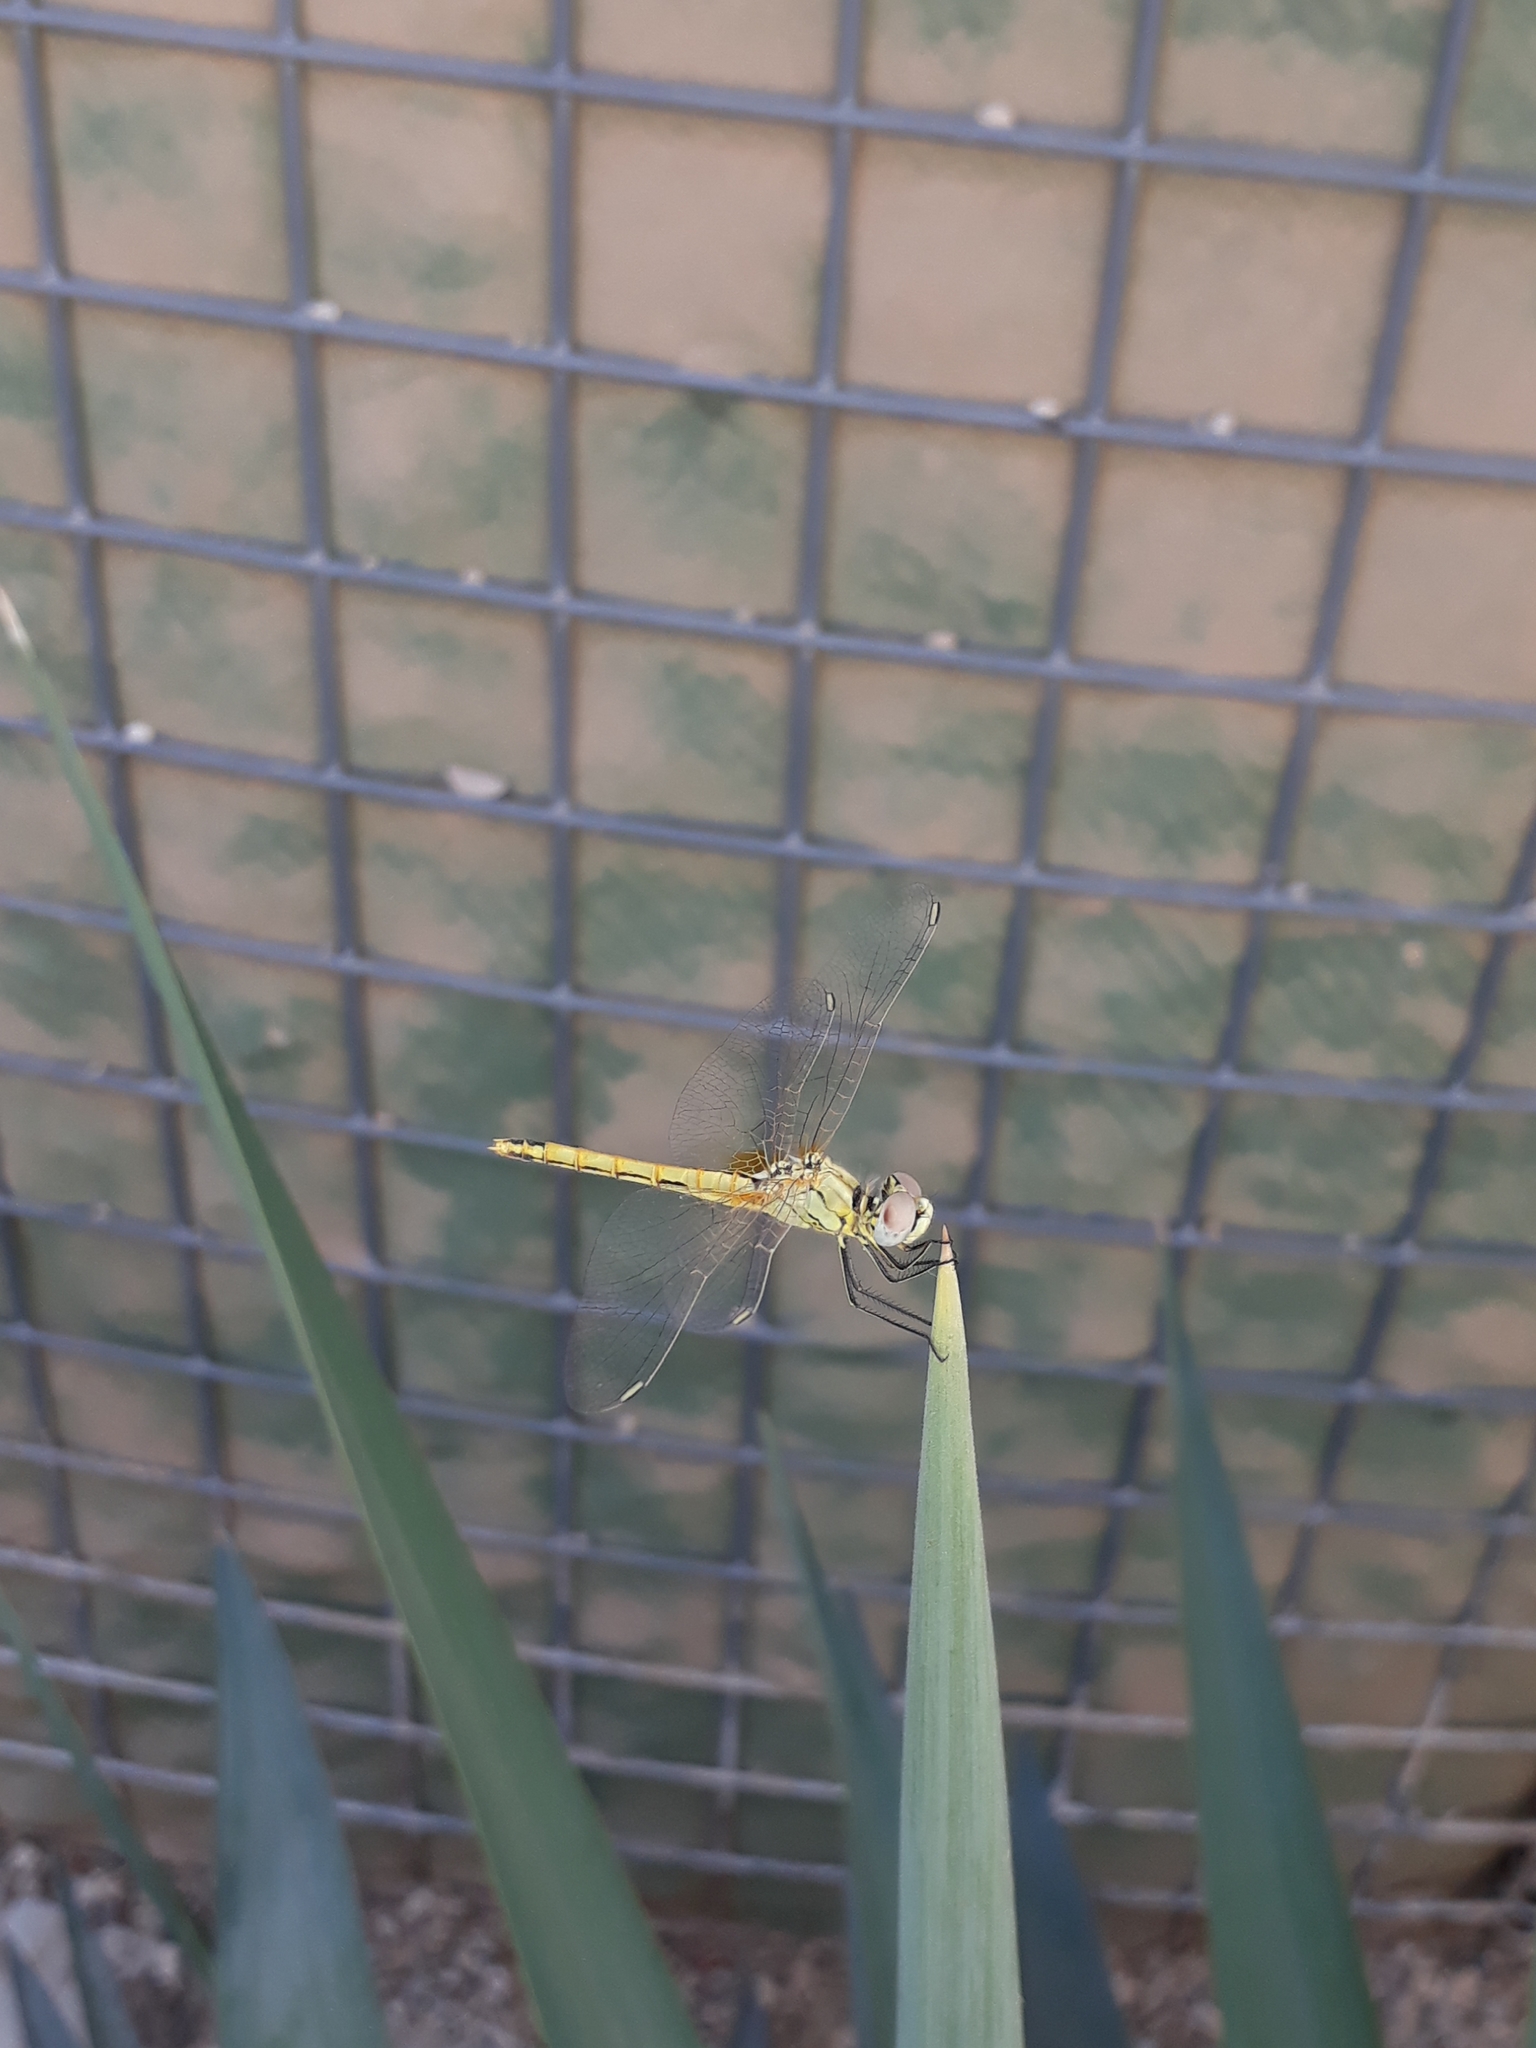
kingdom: Animalia
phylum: Arthropoda
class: Insecta
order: Odonata
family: Libellulidae
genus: Sympetrum
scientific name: Sympetrum fonscolombii
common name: Red-veined darter
